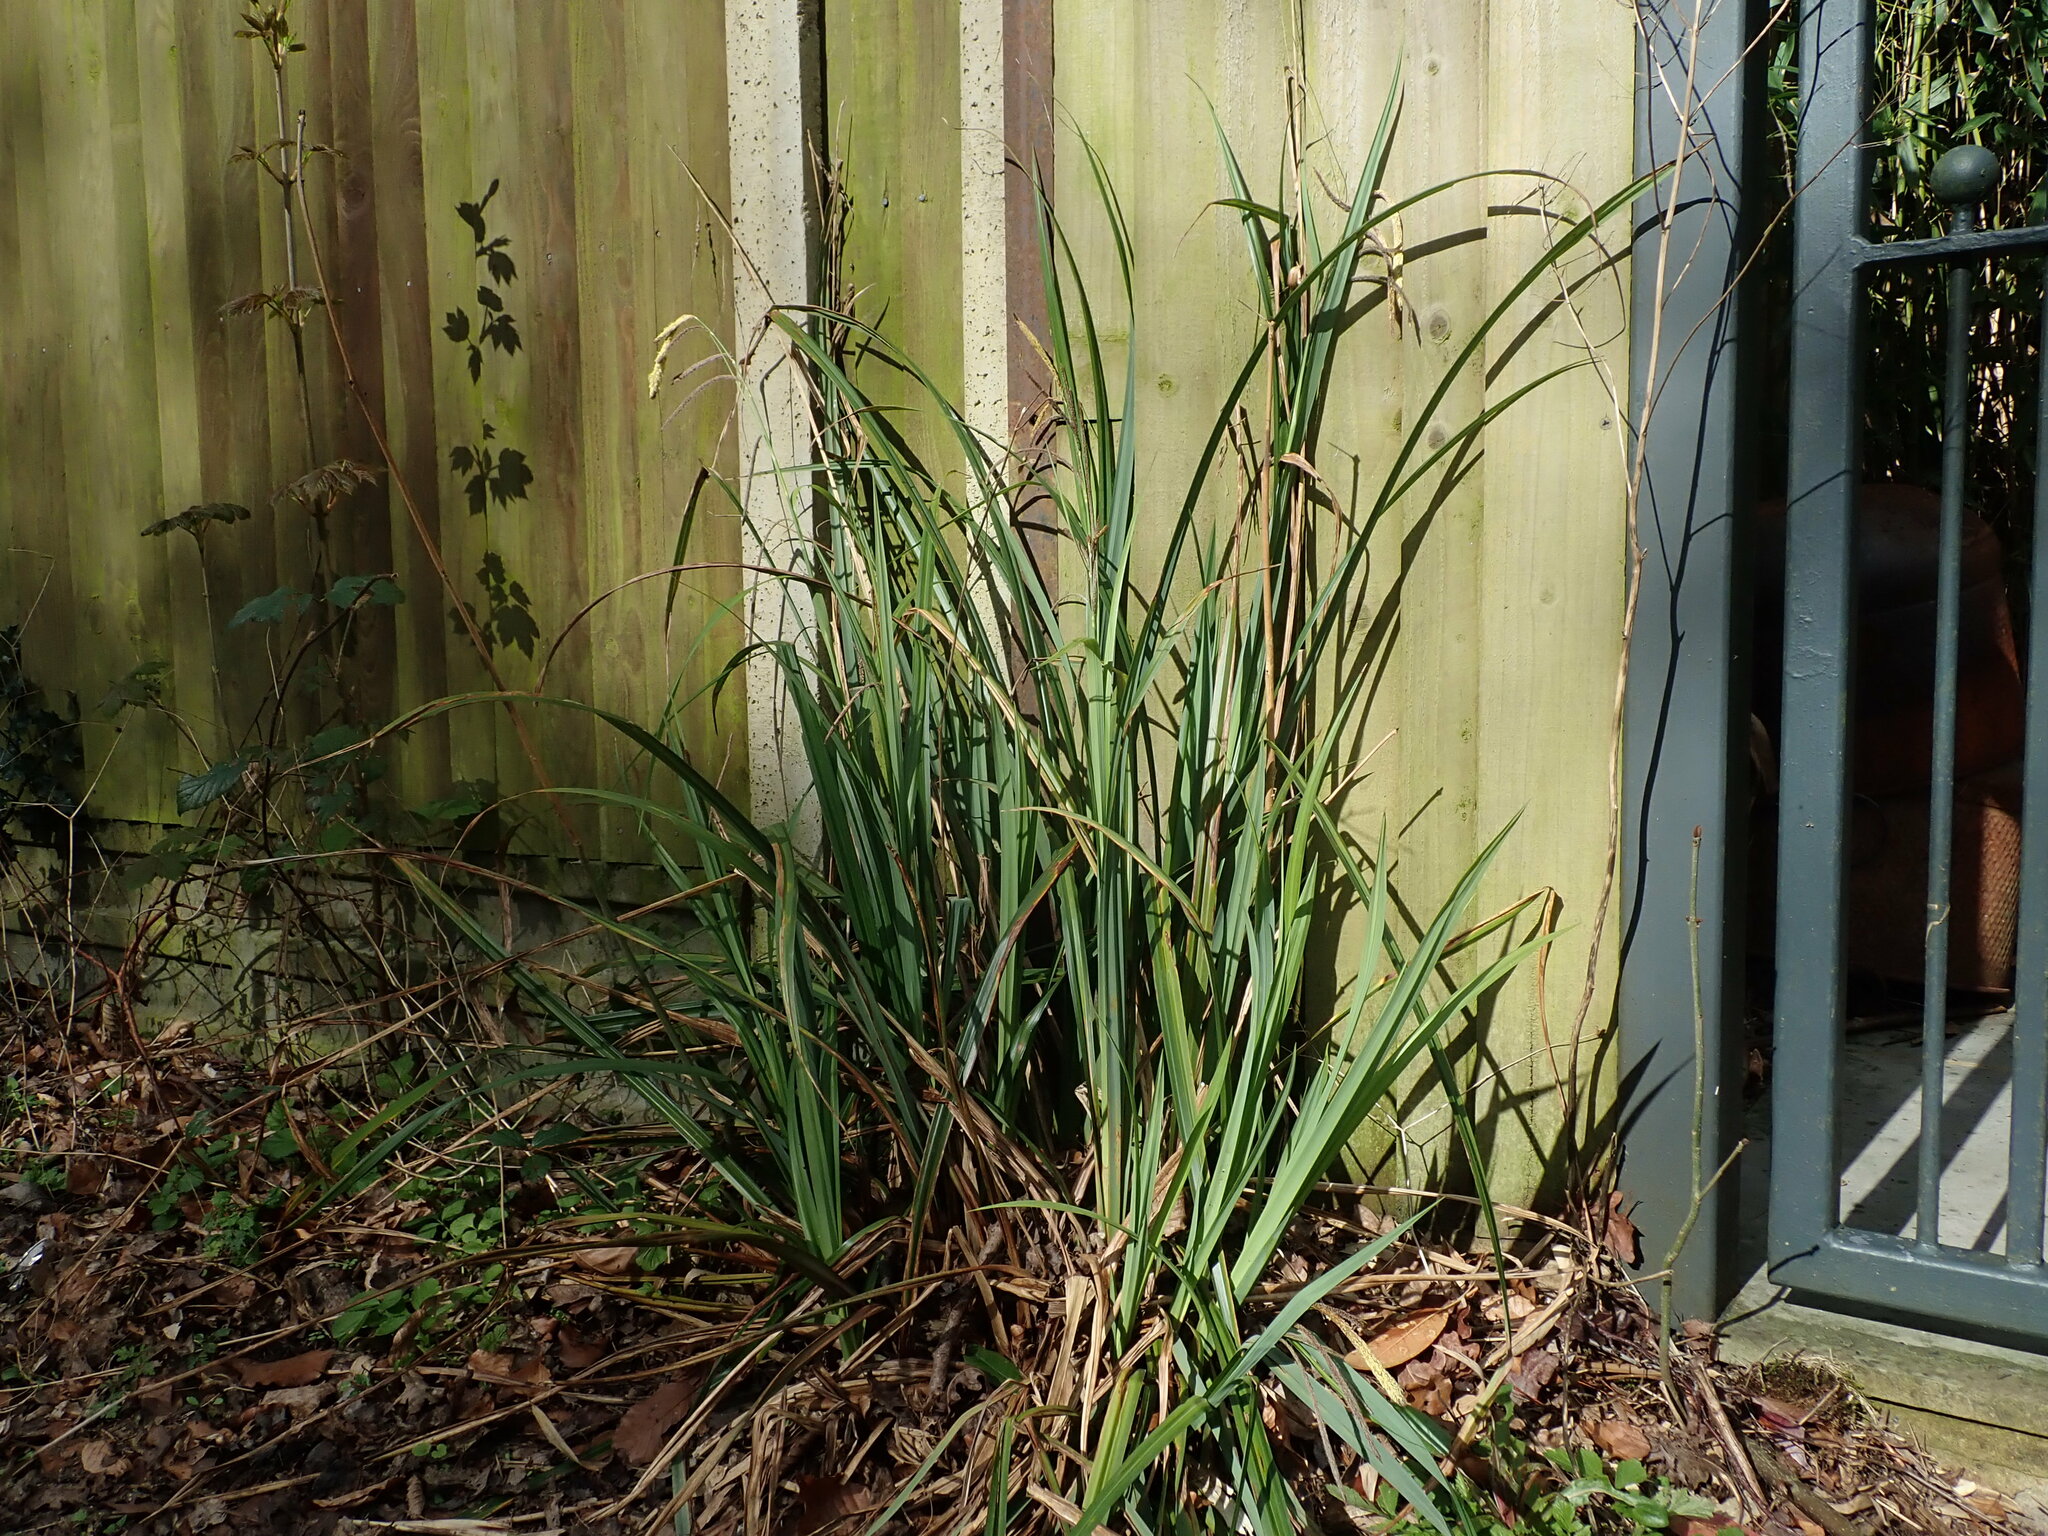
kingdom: Plantae
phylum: Tracheophyta
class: Liliopsida
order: Poales
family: Cyperaceae
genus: Carex
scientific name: Carex pendula
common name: Pendulous sedge
